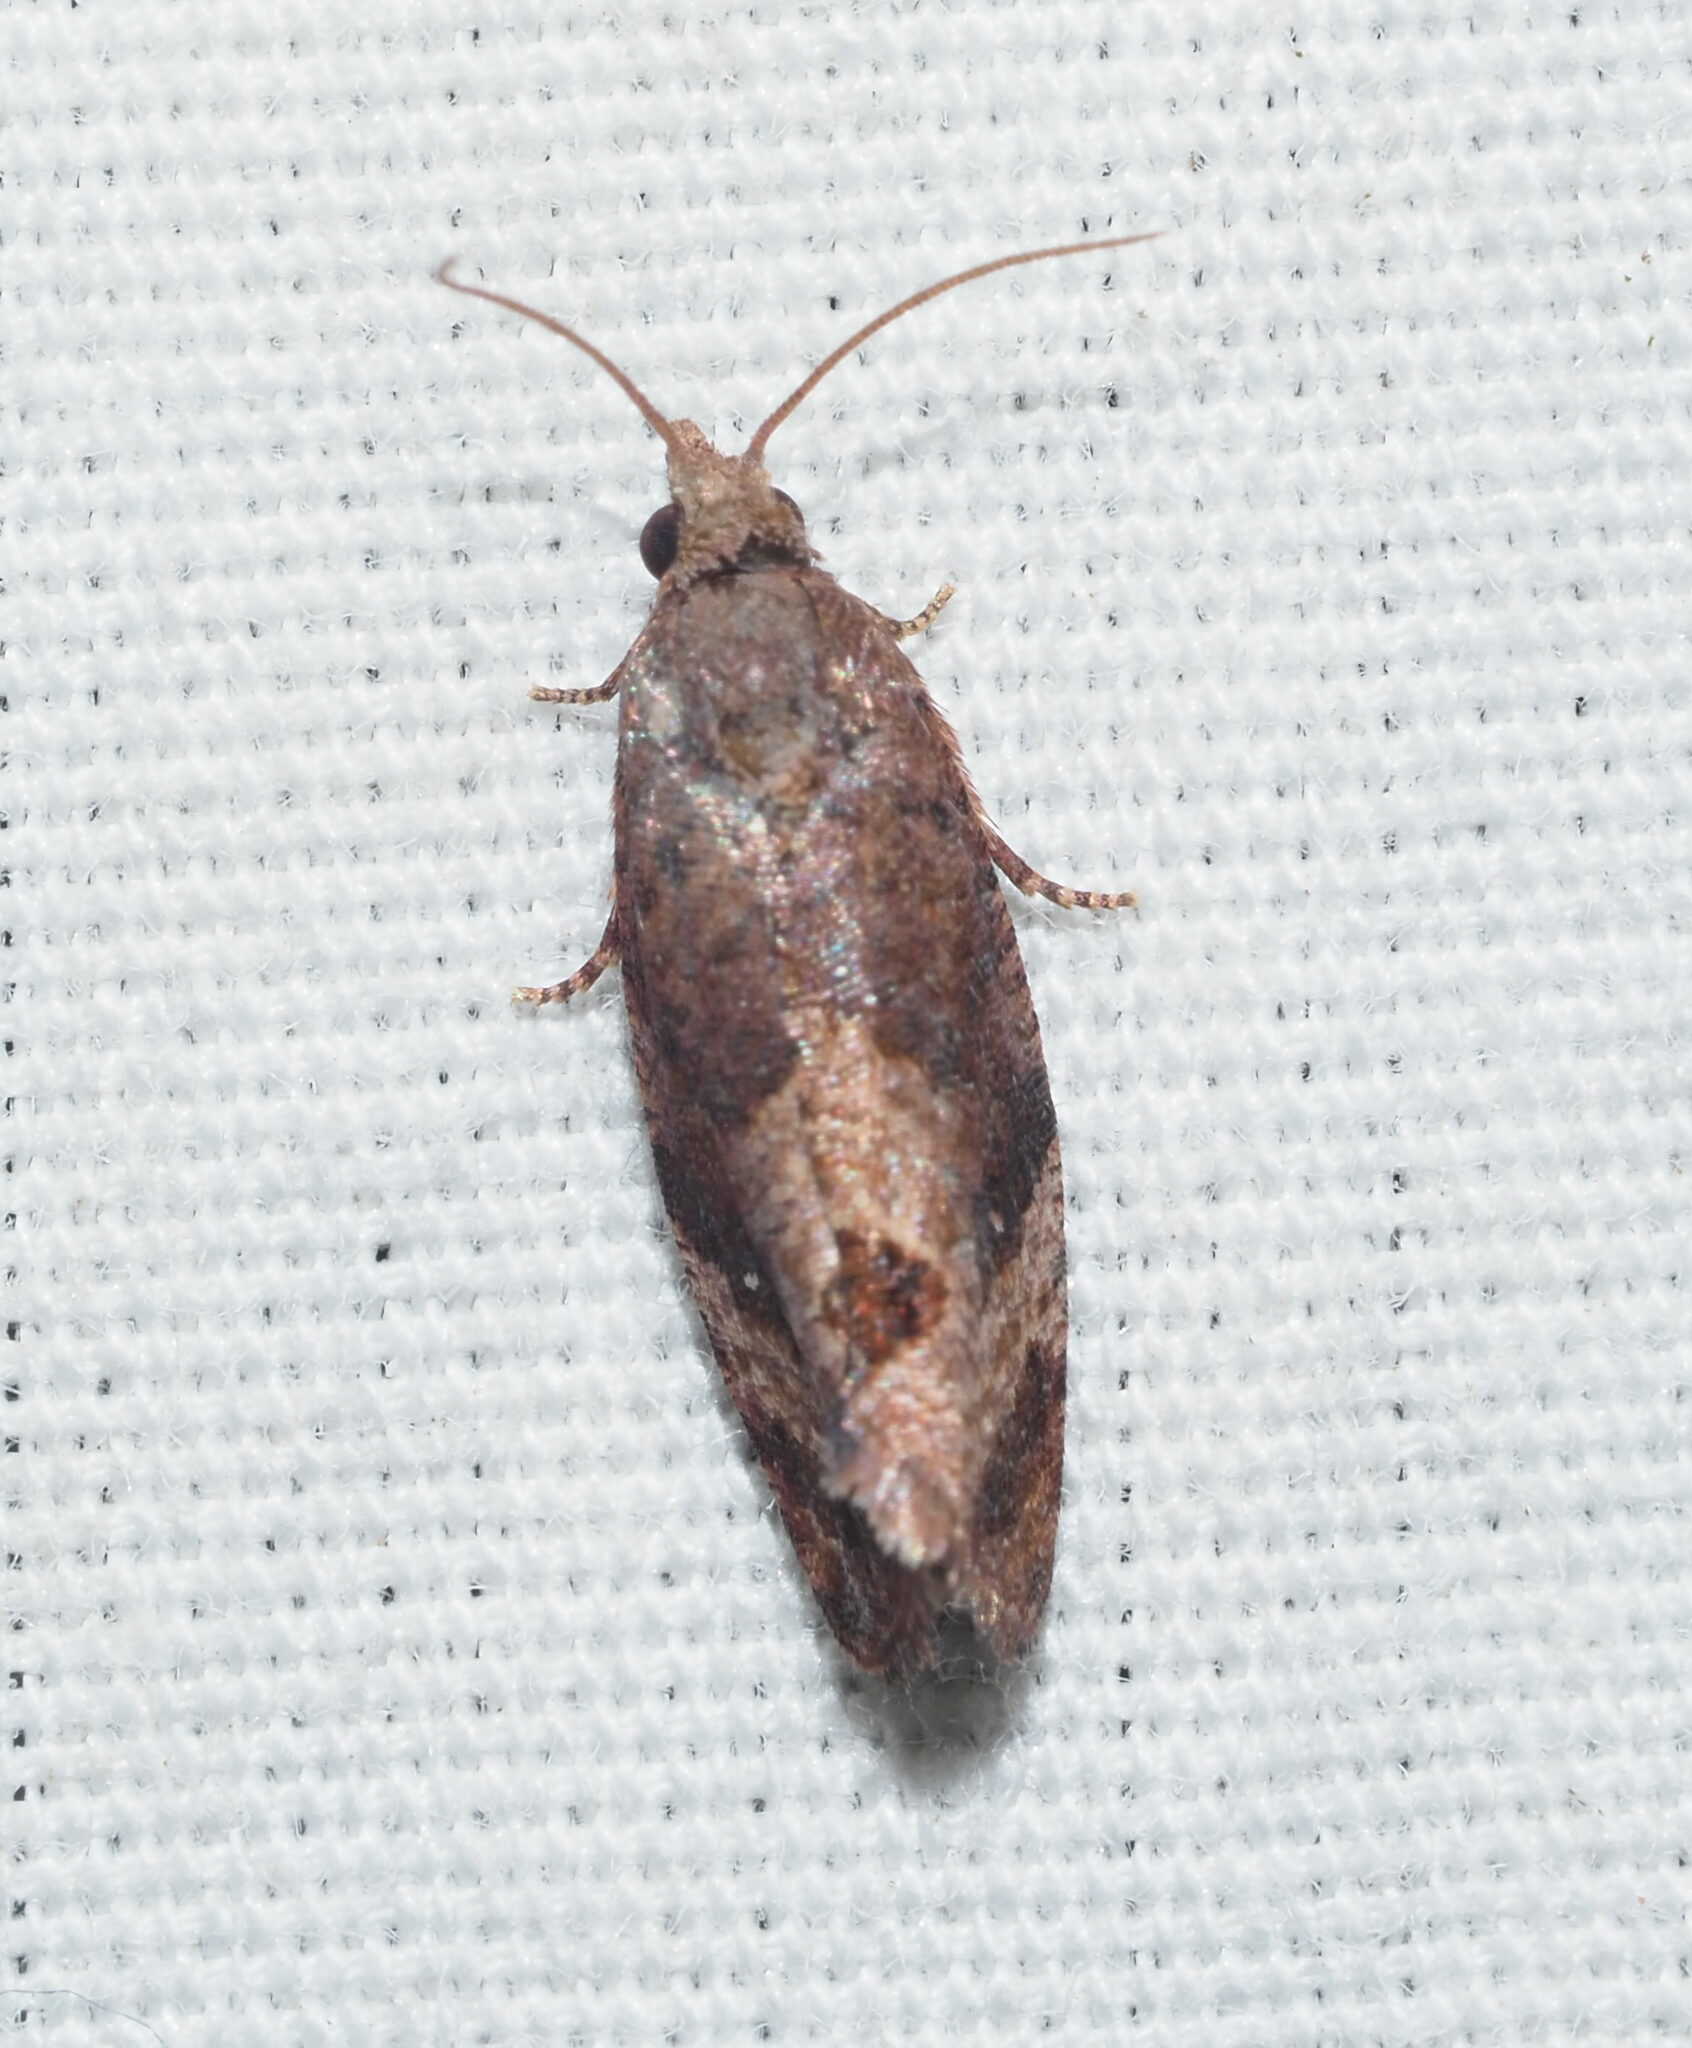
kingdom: Animalia
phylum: Arthropoda
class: Insecta
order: Lepidoptera
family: Tortricidae
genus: Cryptophlebia
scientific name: Cryptophlebia illepida
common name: Moth
